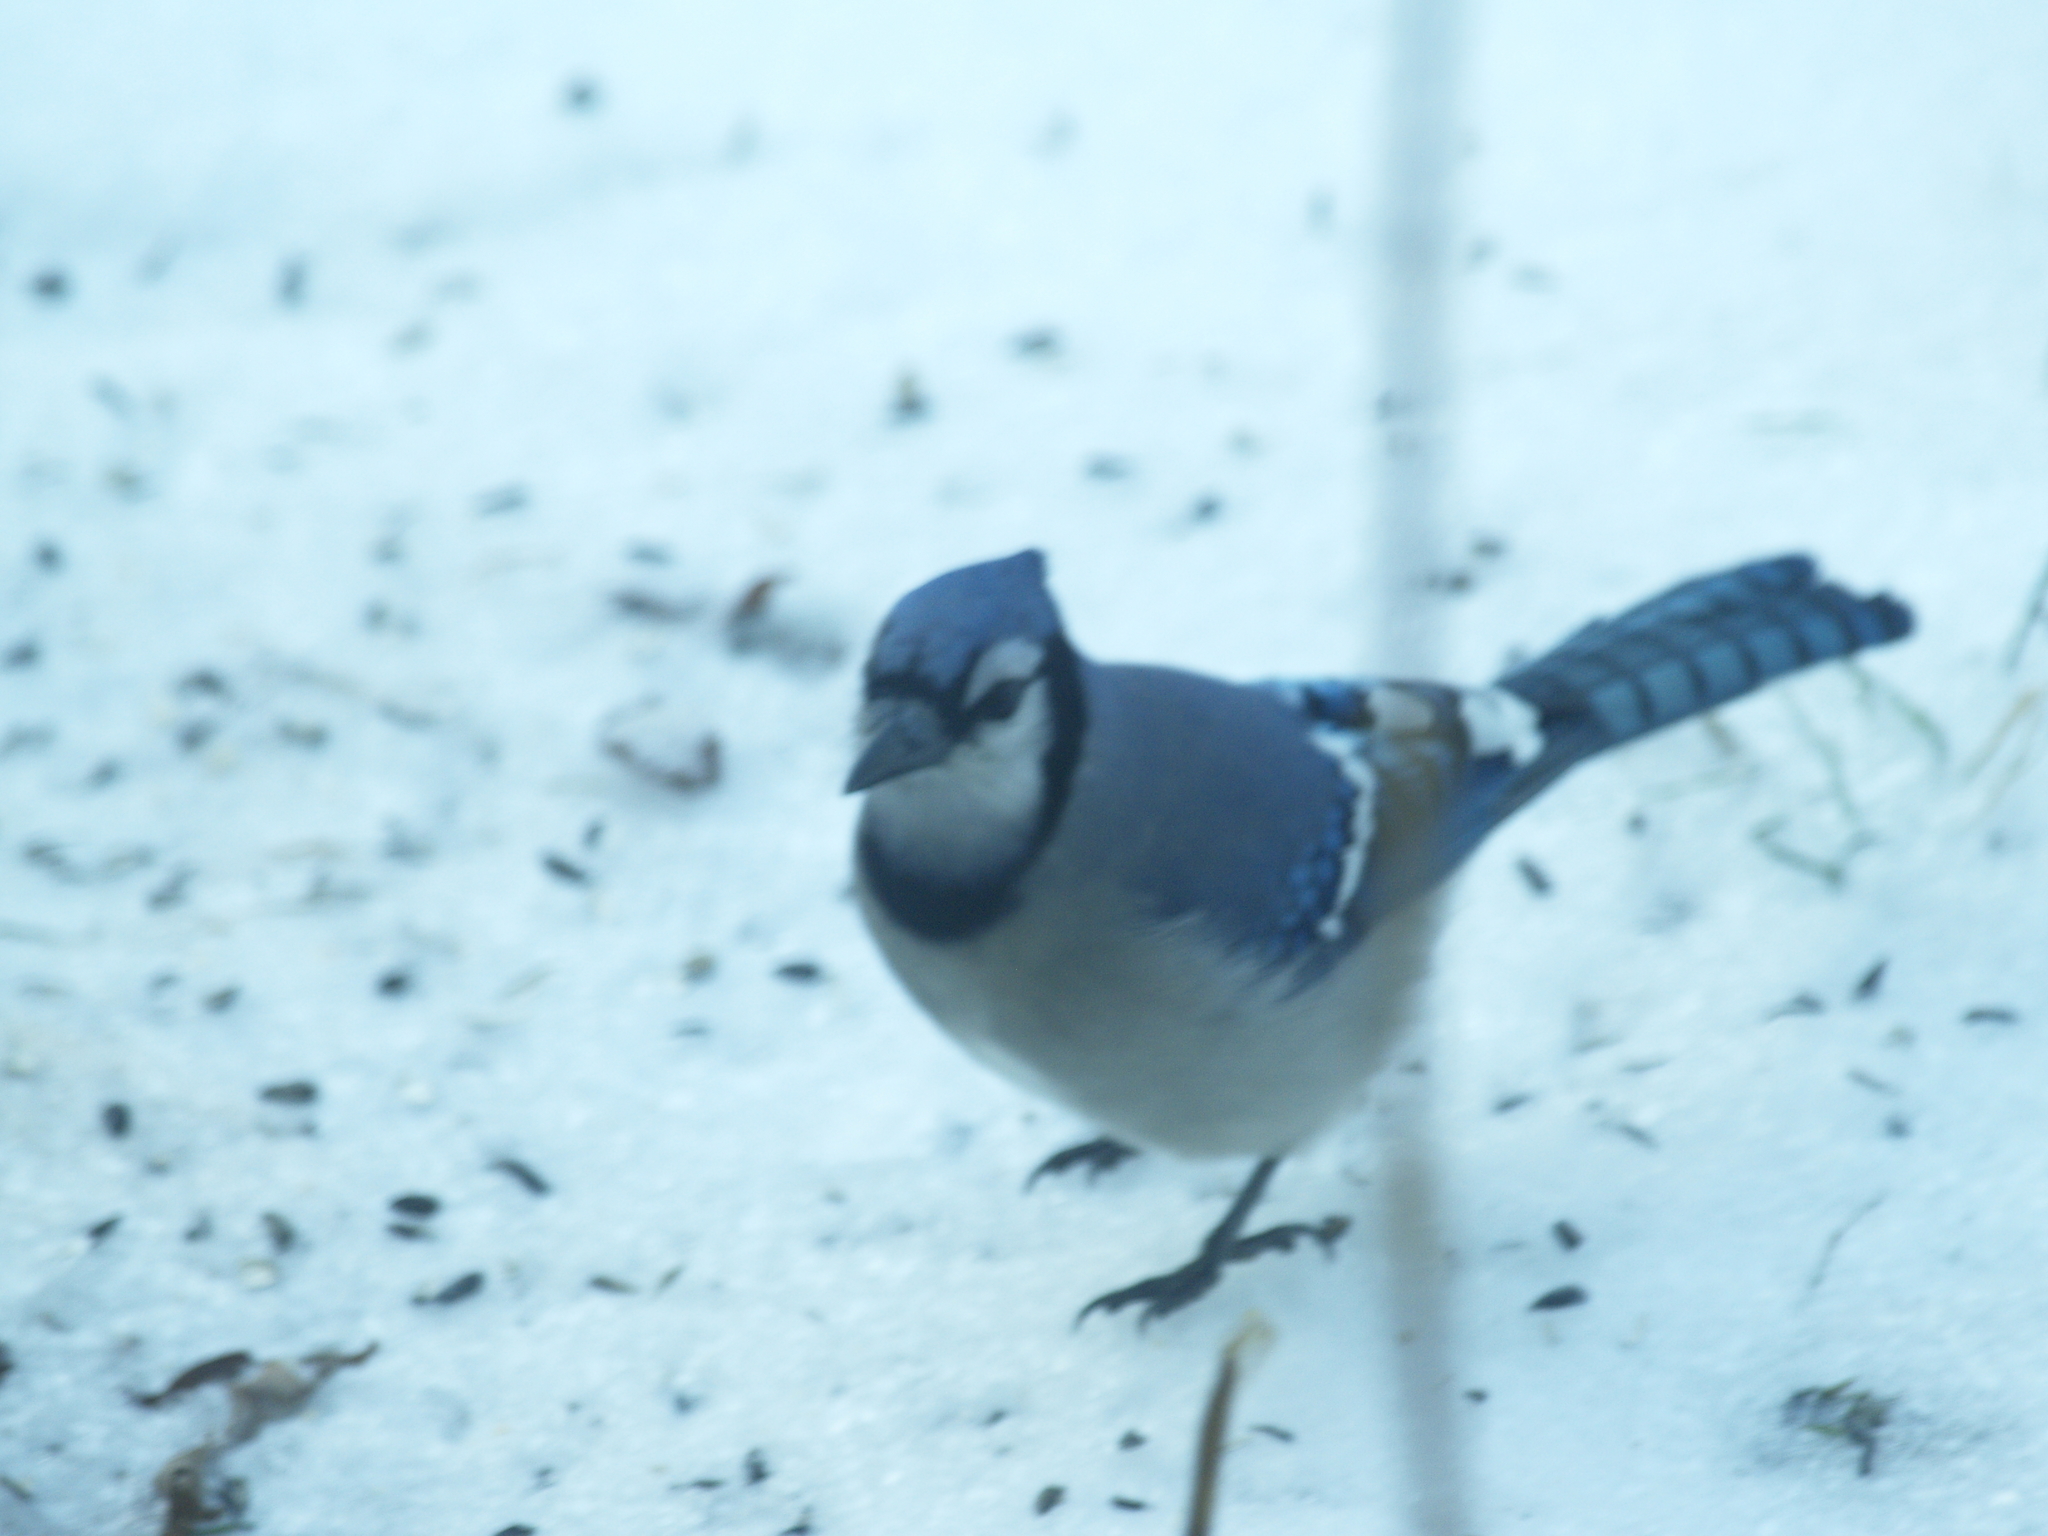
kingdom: Animalia
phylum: Chordata
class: Aves
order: Passeriformes
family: Corvidae
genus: Cyanocitta
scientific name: Cyanocitta cristata
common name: Blue jay
